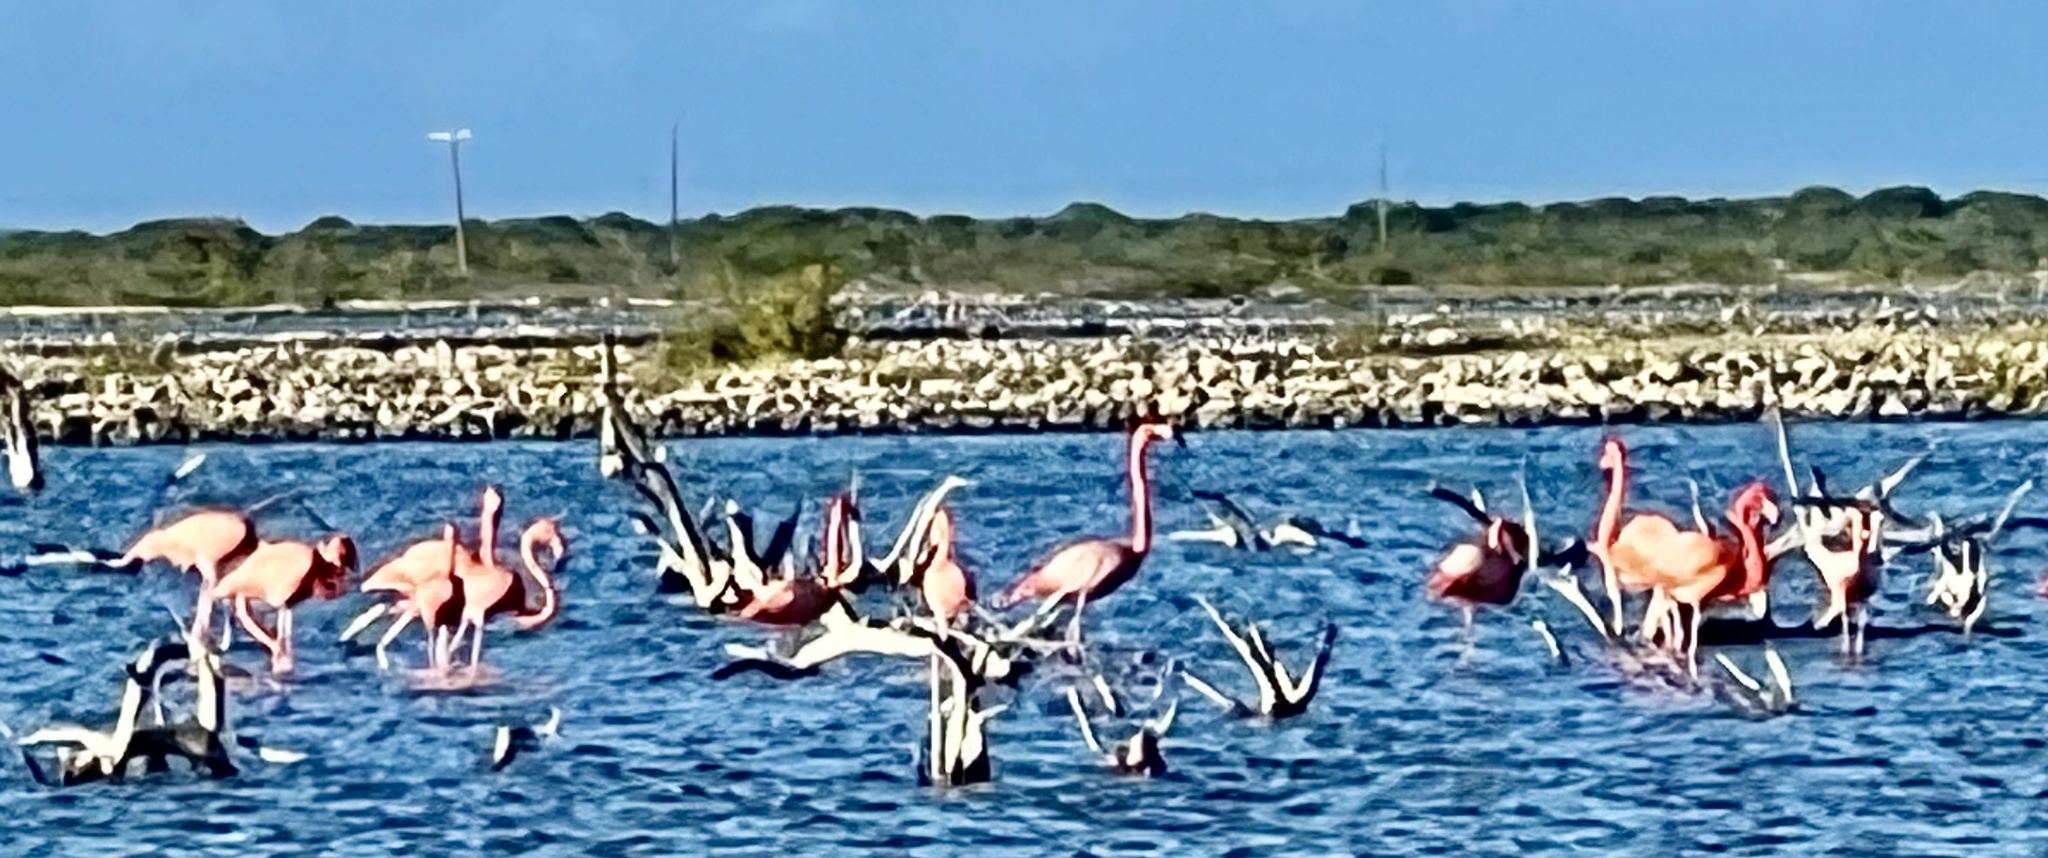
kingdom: Animalia
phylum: Chordata
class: Aves
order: Phoenicopteriformes
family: Phoenicopteridae
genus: Phoenicopterus
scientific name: Phoenicopterus ruber
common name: American flamingo
